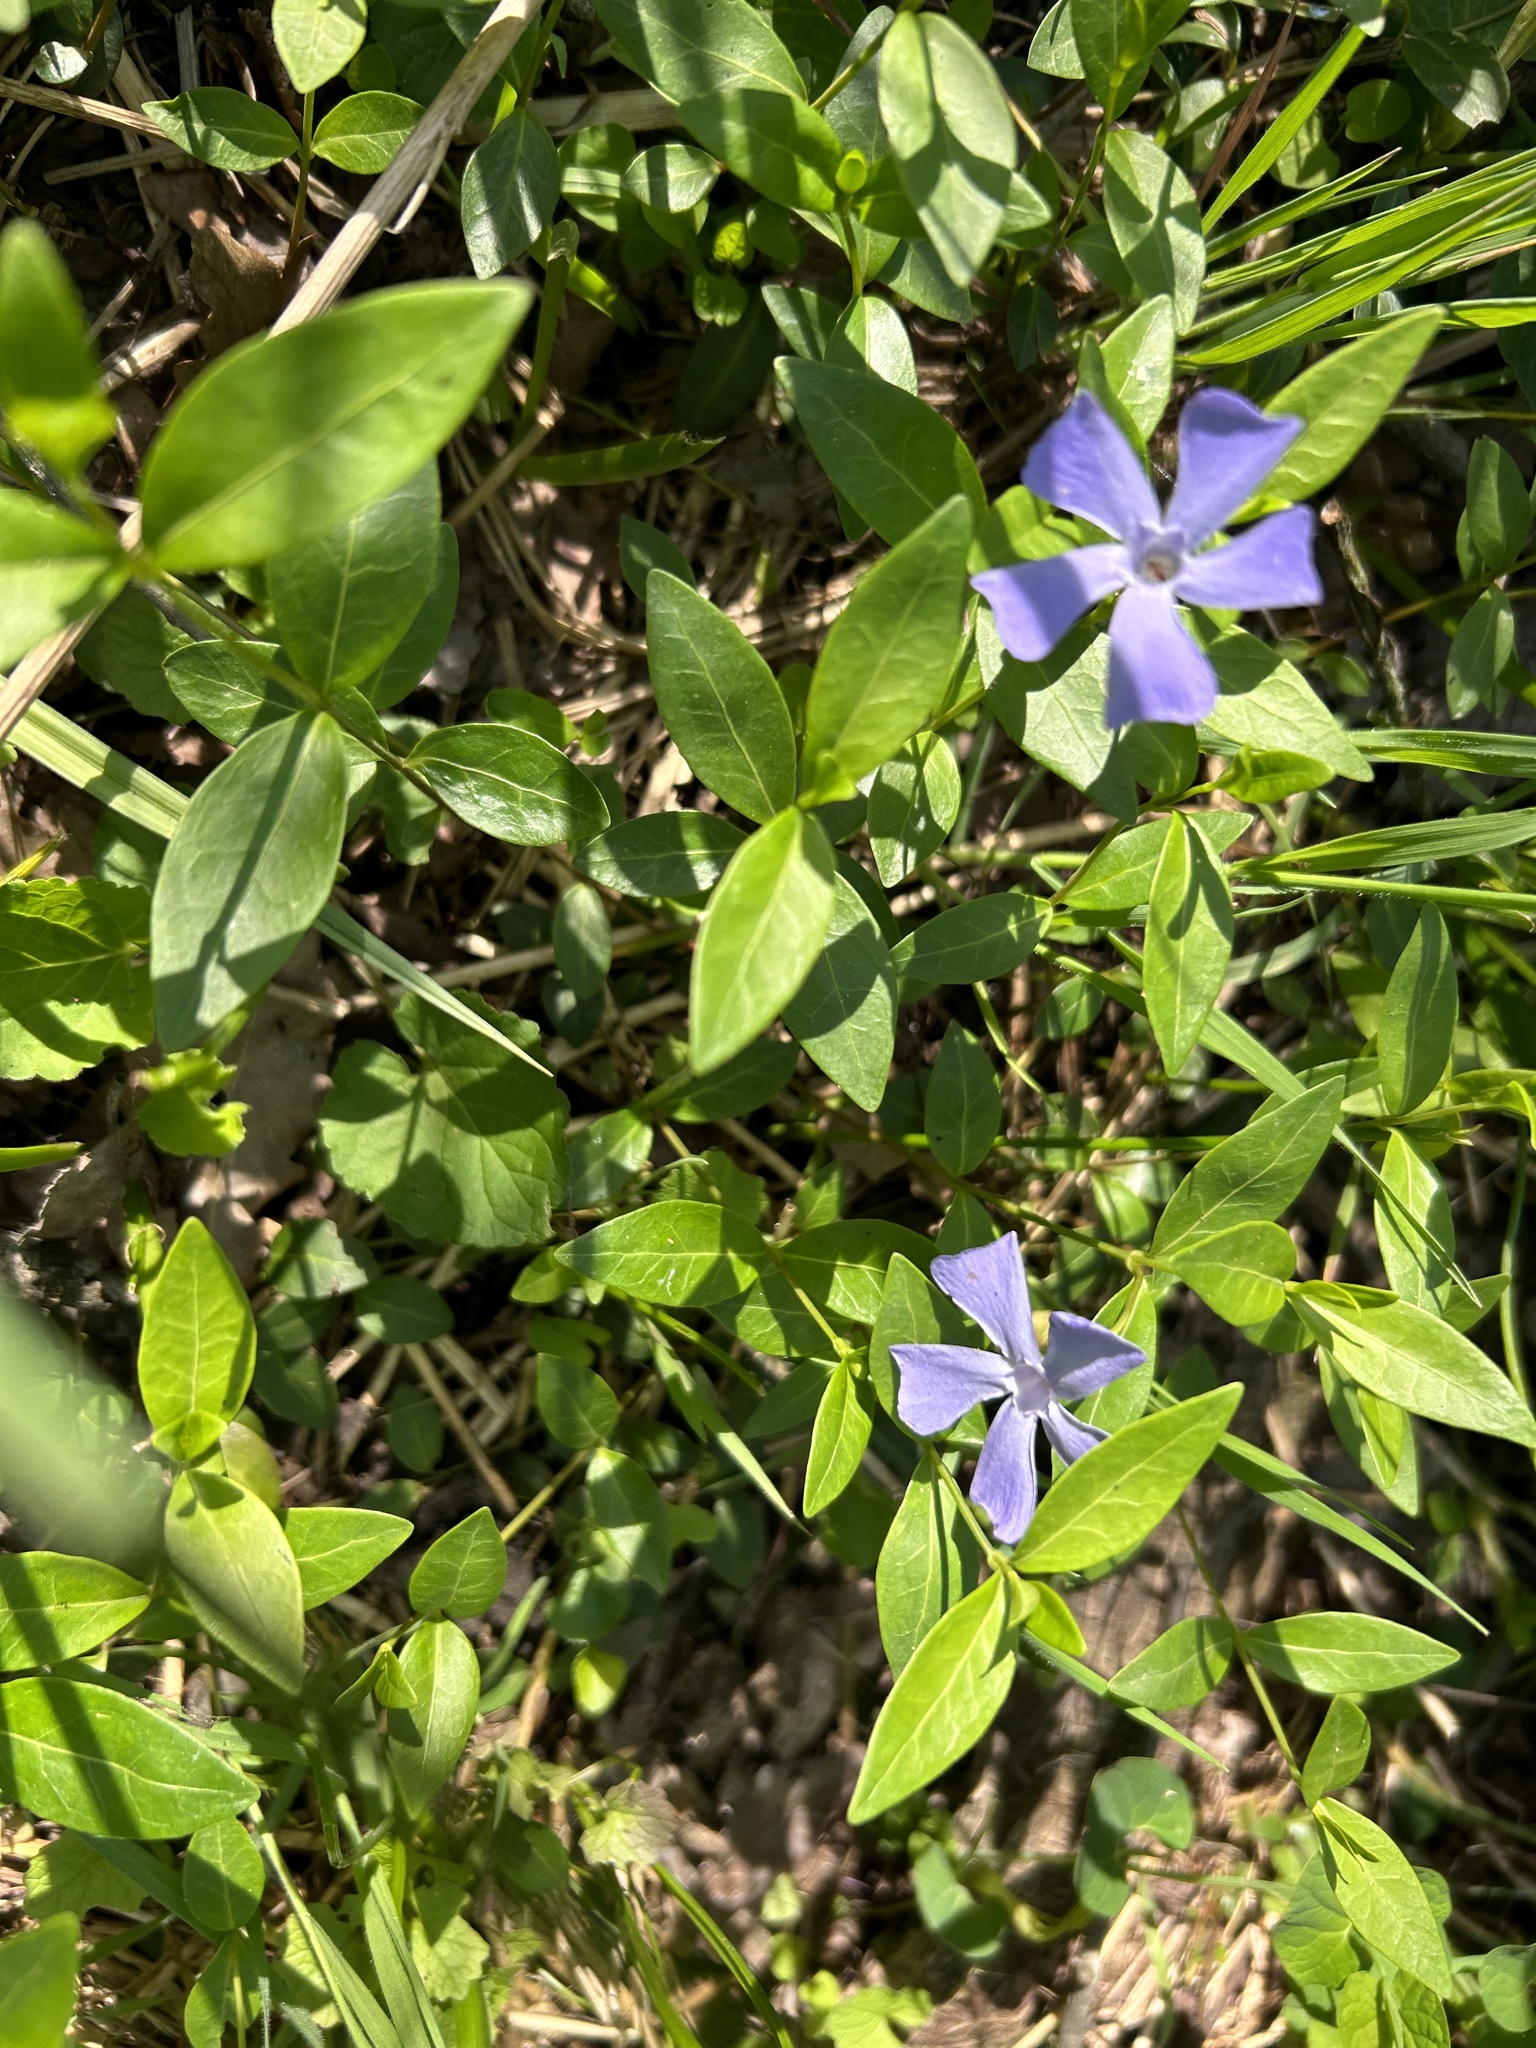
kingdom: Plantae
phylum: Tracheophyta
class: Magnoliopsida
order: Gentianales
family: Apocynaceae
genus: Vinca
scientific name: Vinca minor
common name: Lesser periwinkle
